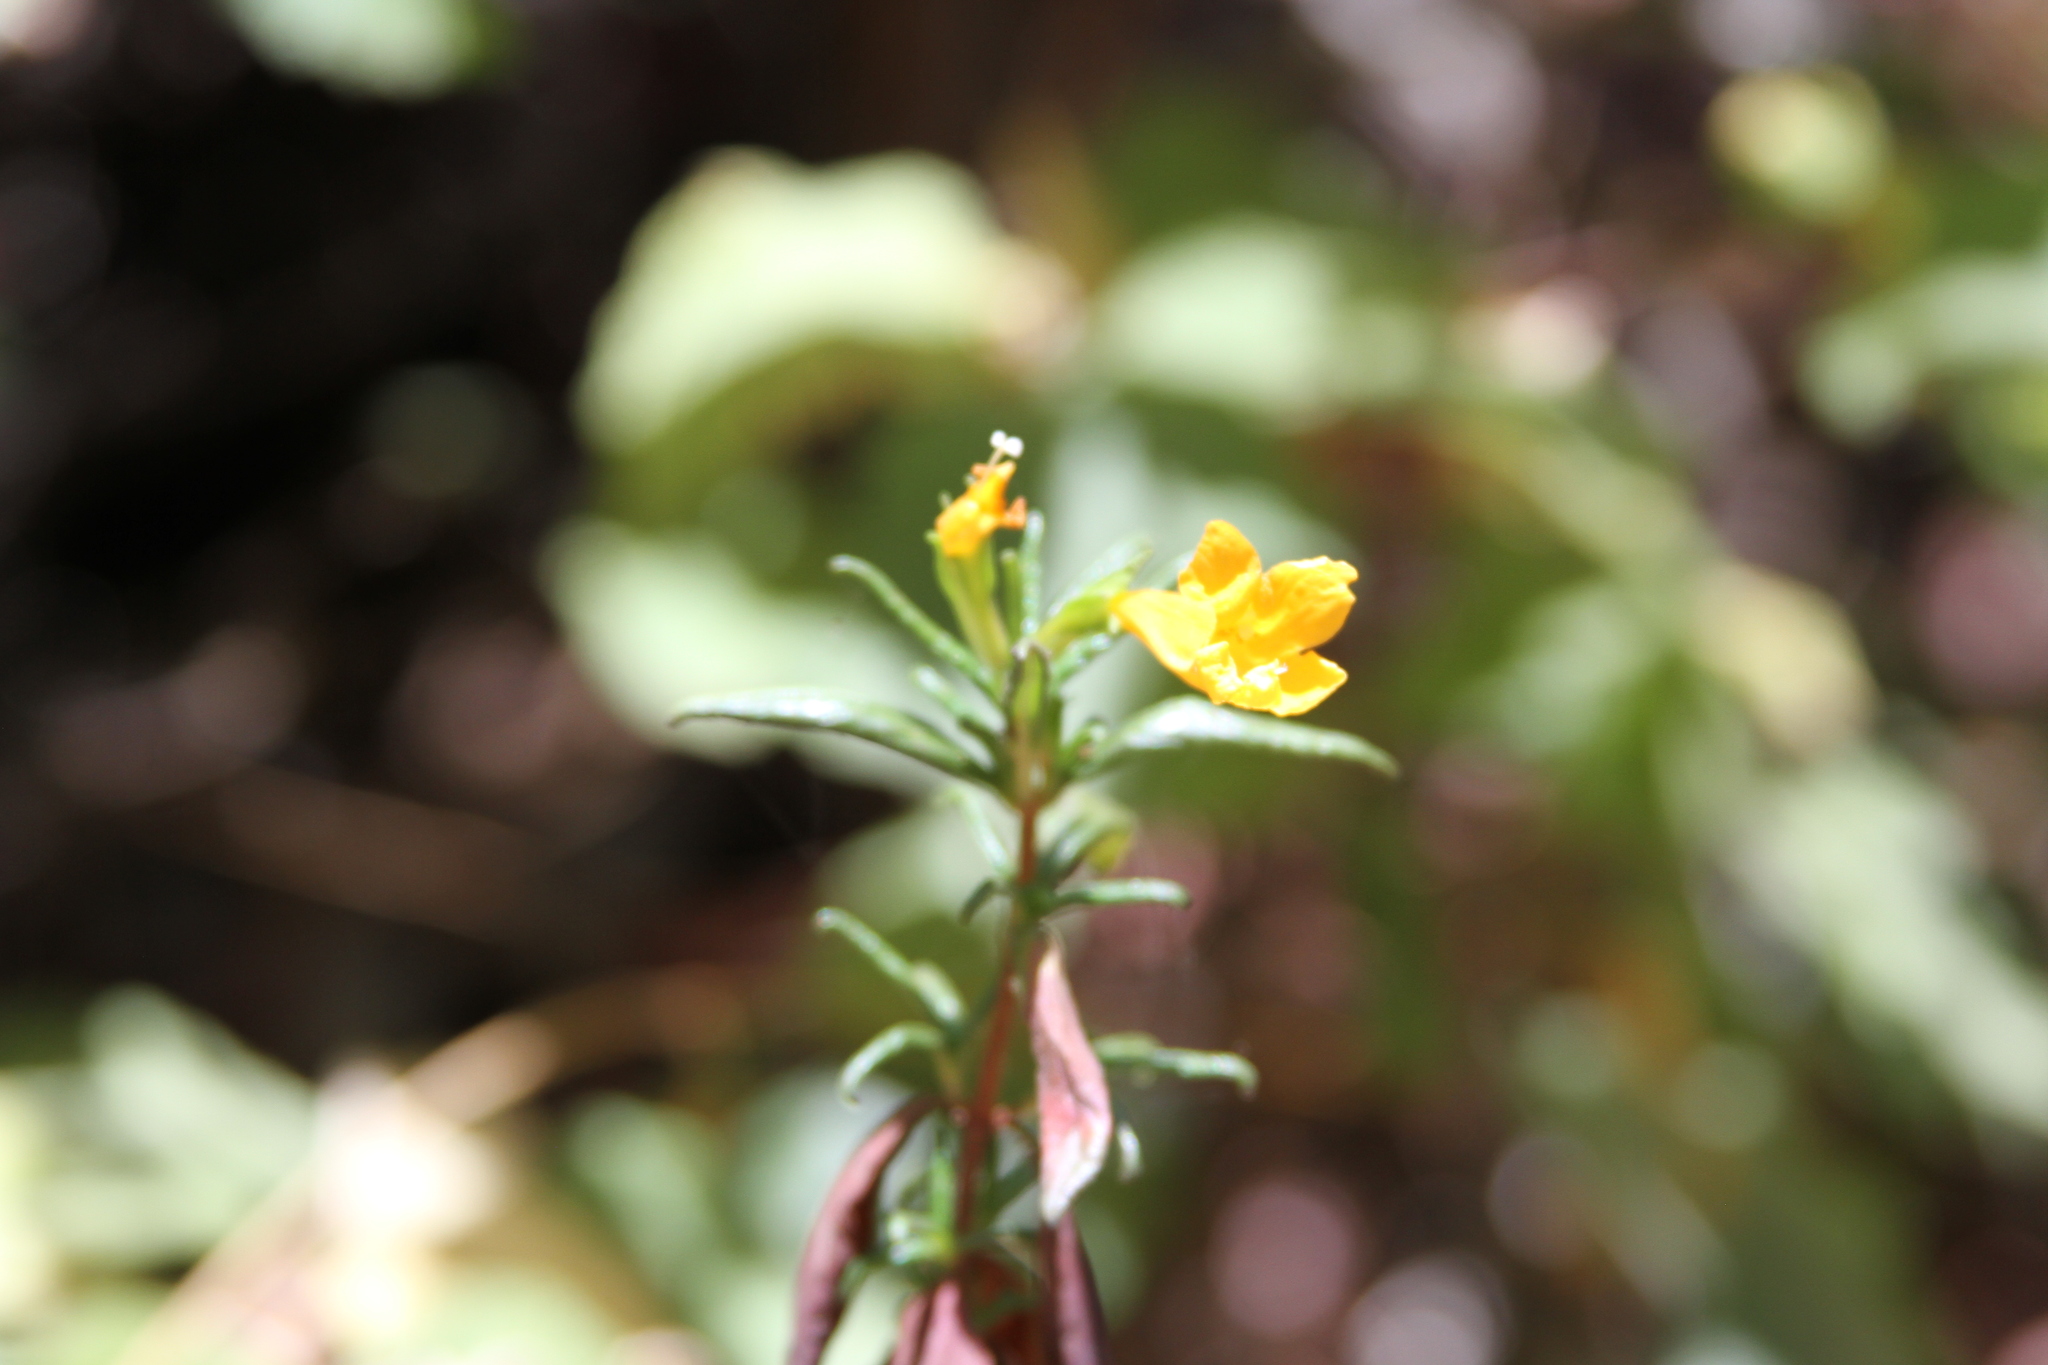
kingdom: Plantae
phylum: Tracheophyta
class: Magnoliopsida
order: Lamiales
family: Phrymaceae
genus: Diplacus
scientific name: Diplacus aurantiacus
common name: Bush monkey-flower
